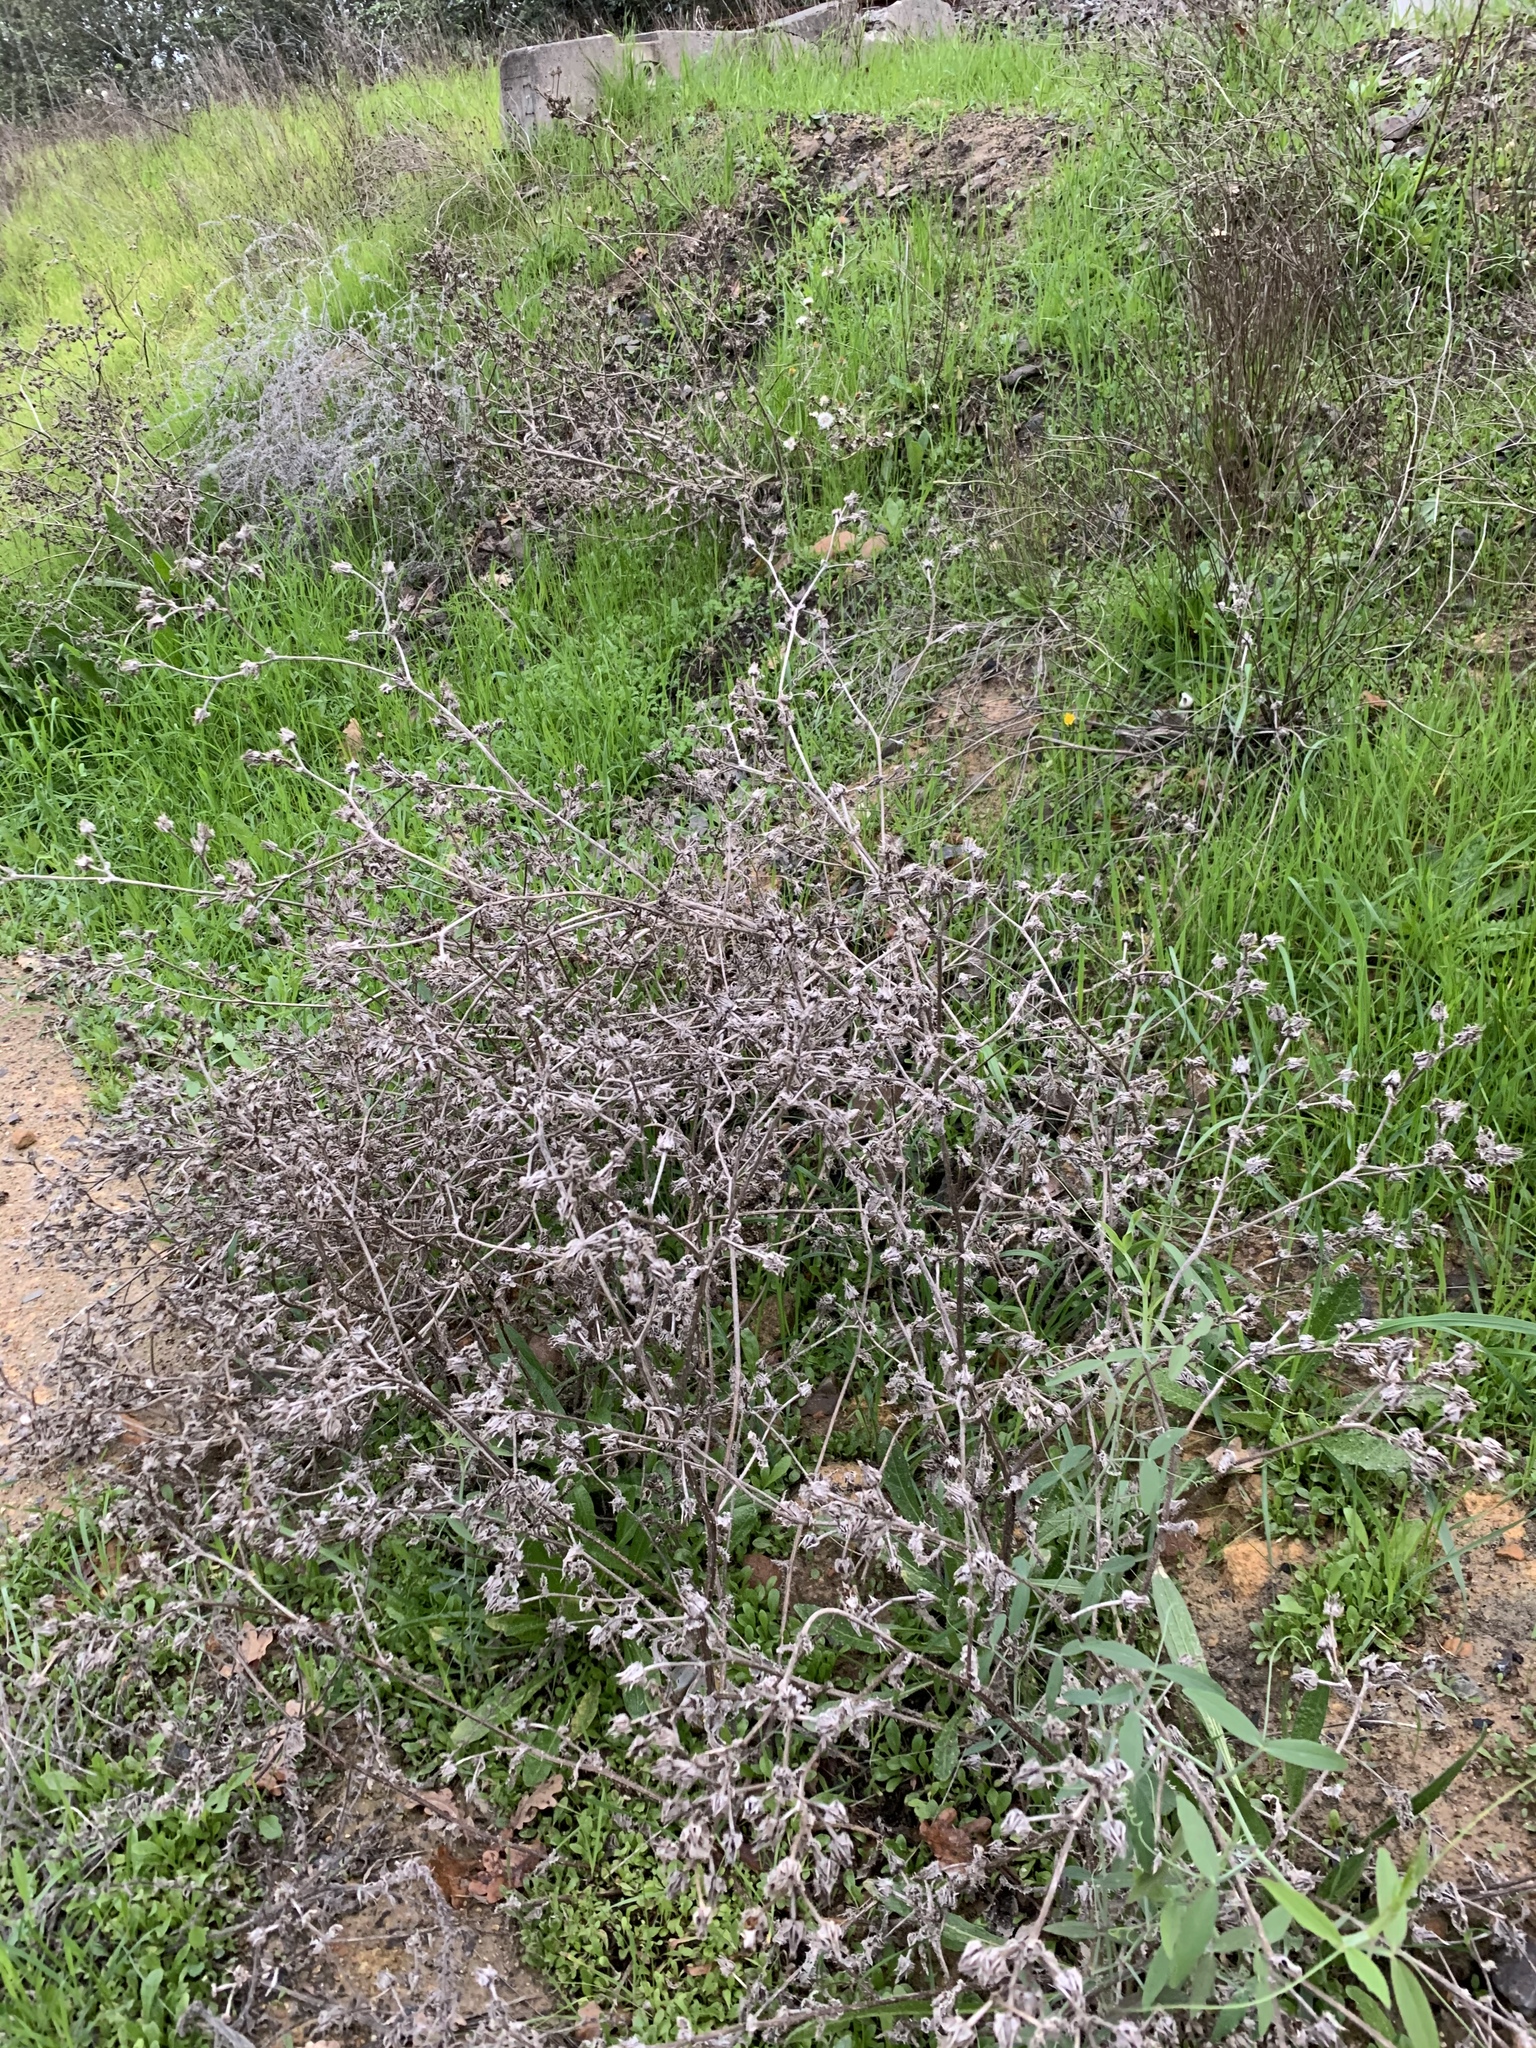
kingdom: Plantae
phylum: Tracheophyta
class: Magnoliopsida
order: Asterales
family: Asteraceae
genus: Helminthotheca
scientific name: Helminthotheca echioides
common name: Ox-tongue
